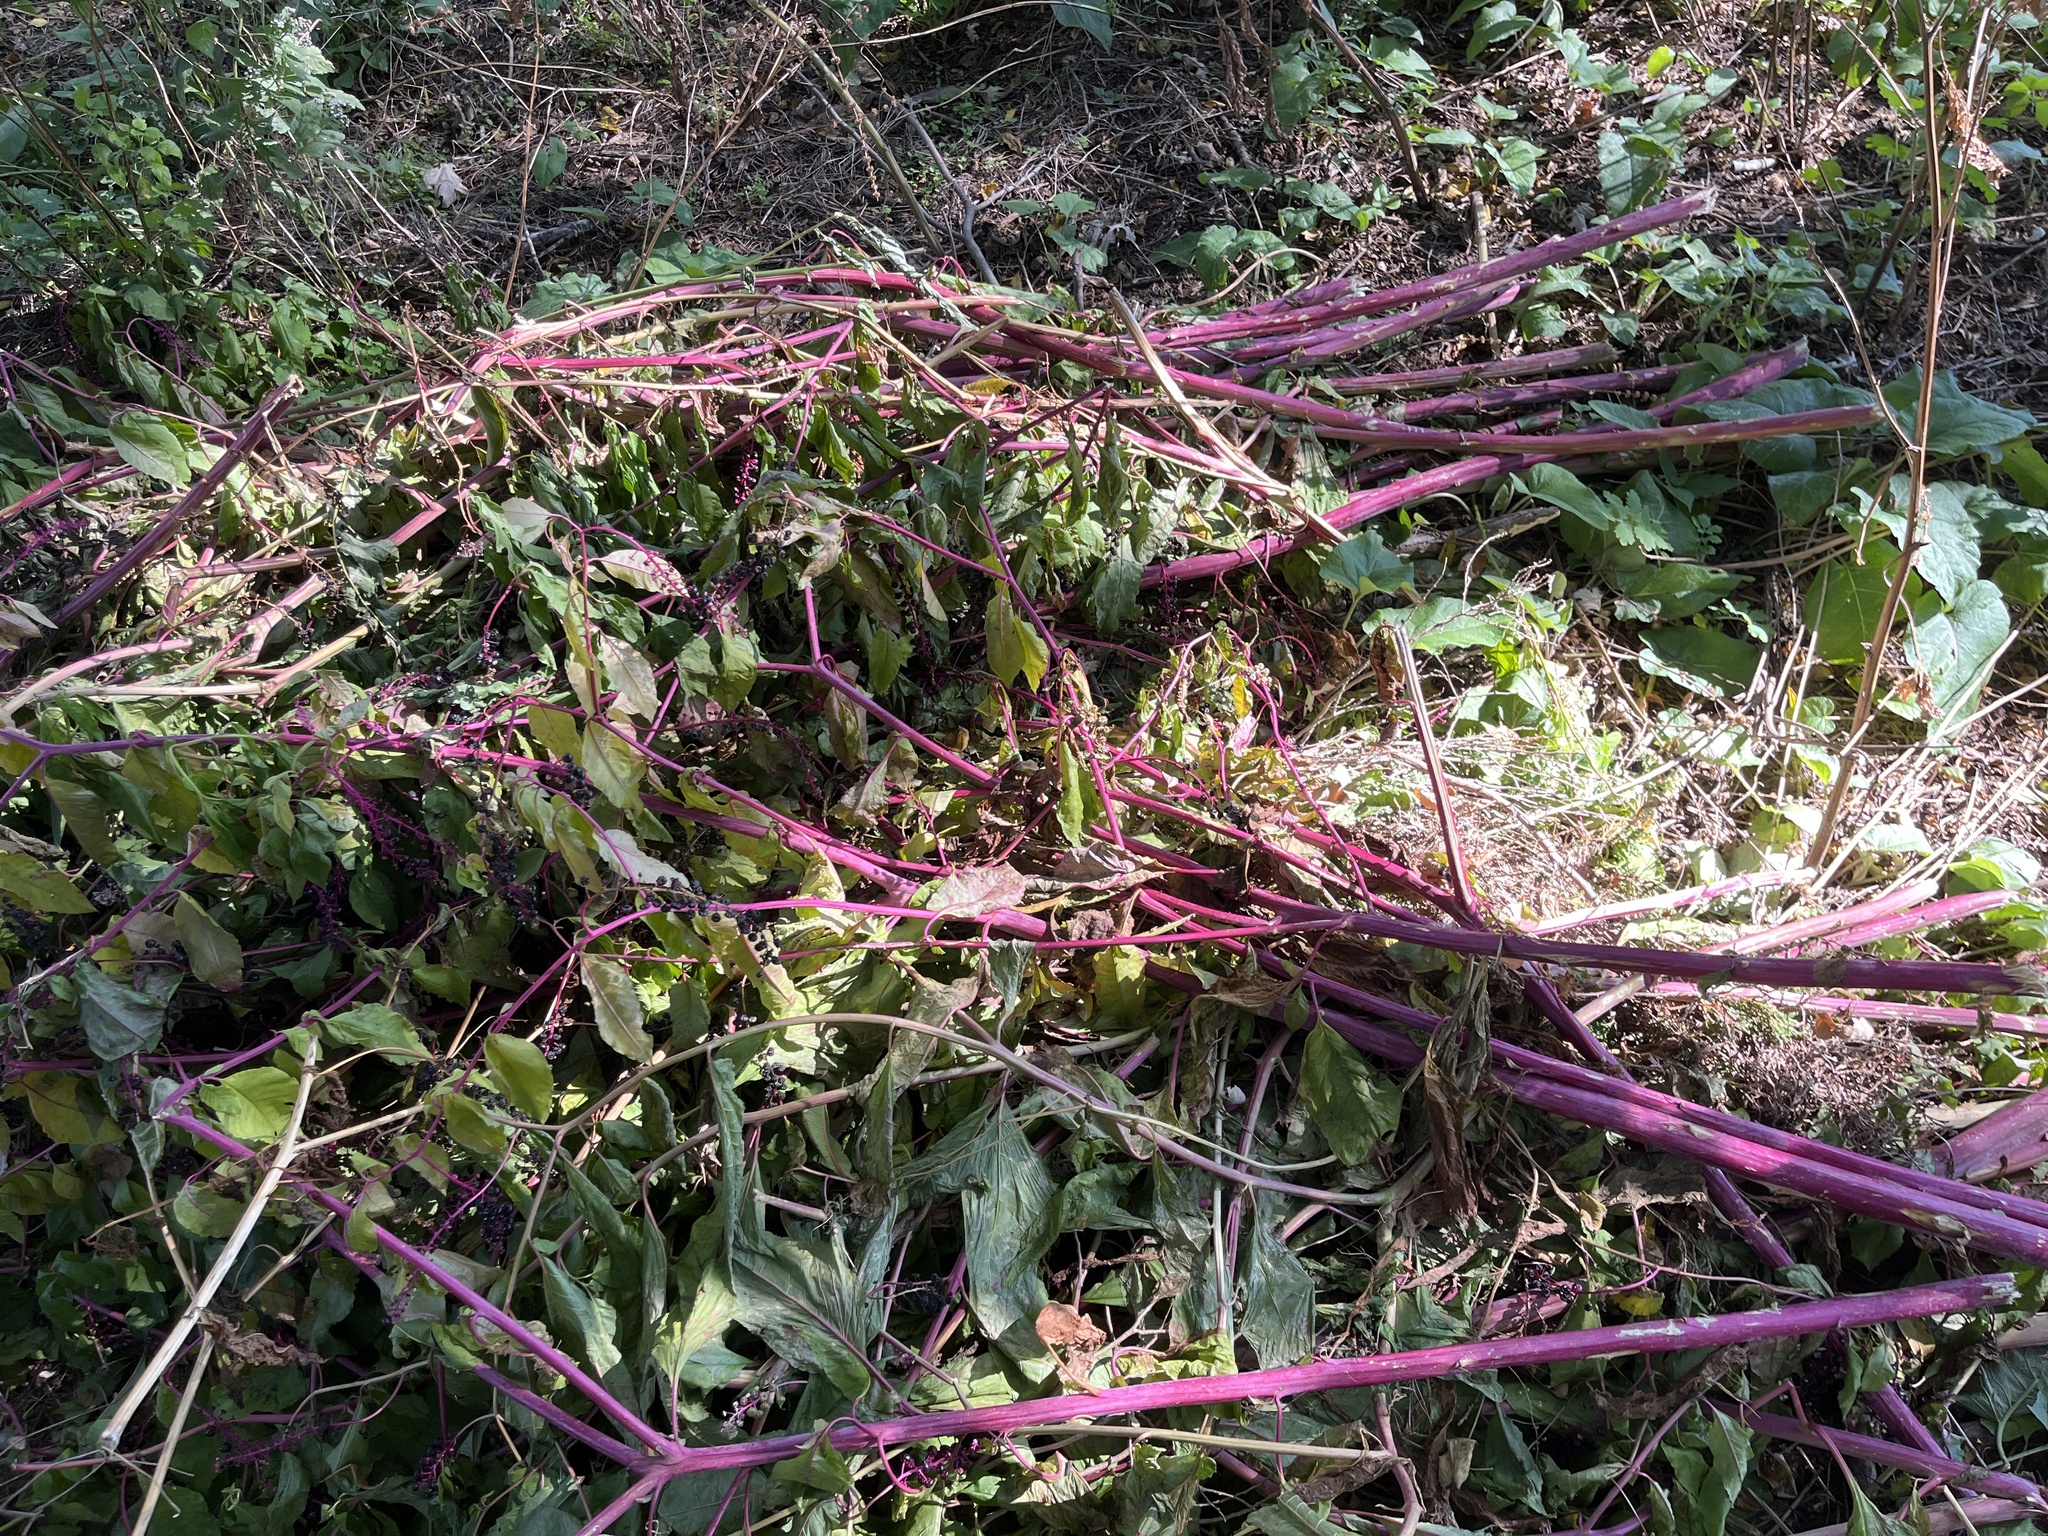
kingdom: Plantae
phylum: Tracheophyta
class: Magnoliopsida
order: Caryophyllales
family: Phytolaccaceae
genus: Phytolacca
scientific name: Phytolacca americana
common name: American pokeweed
